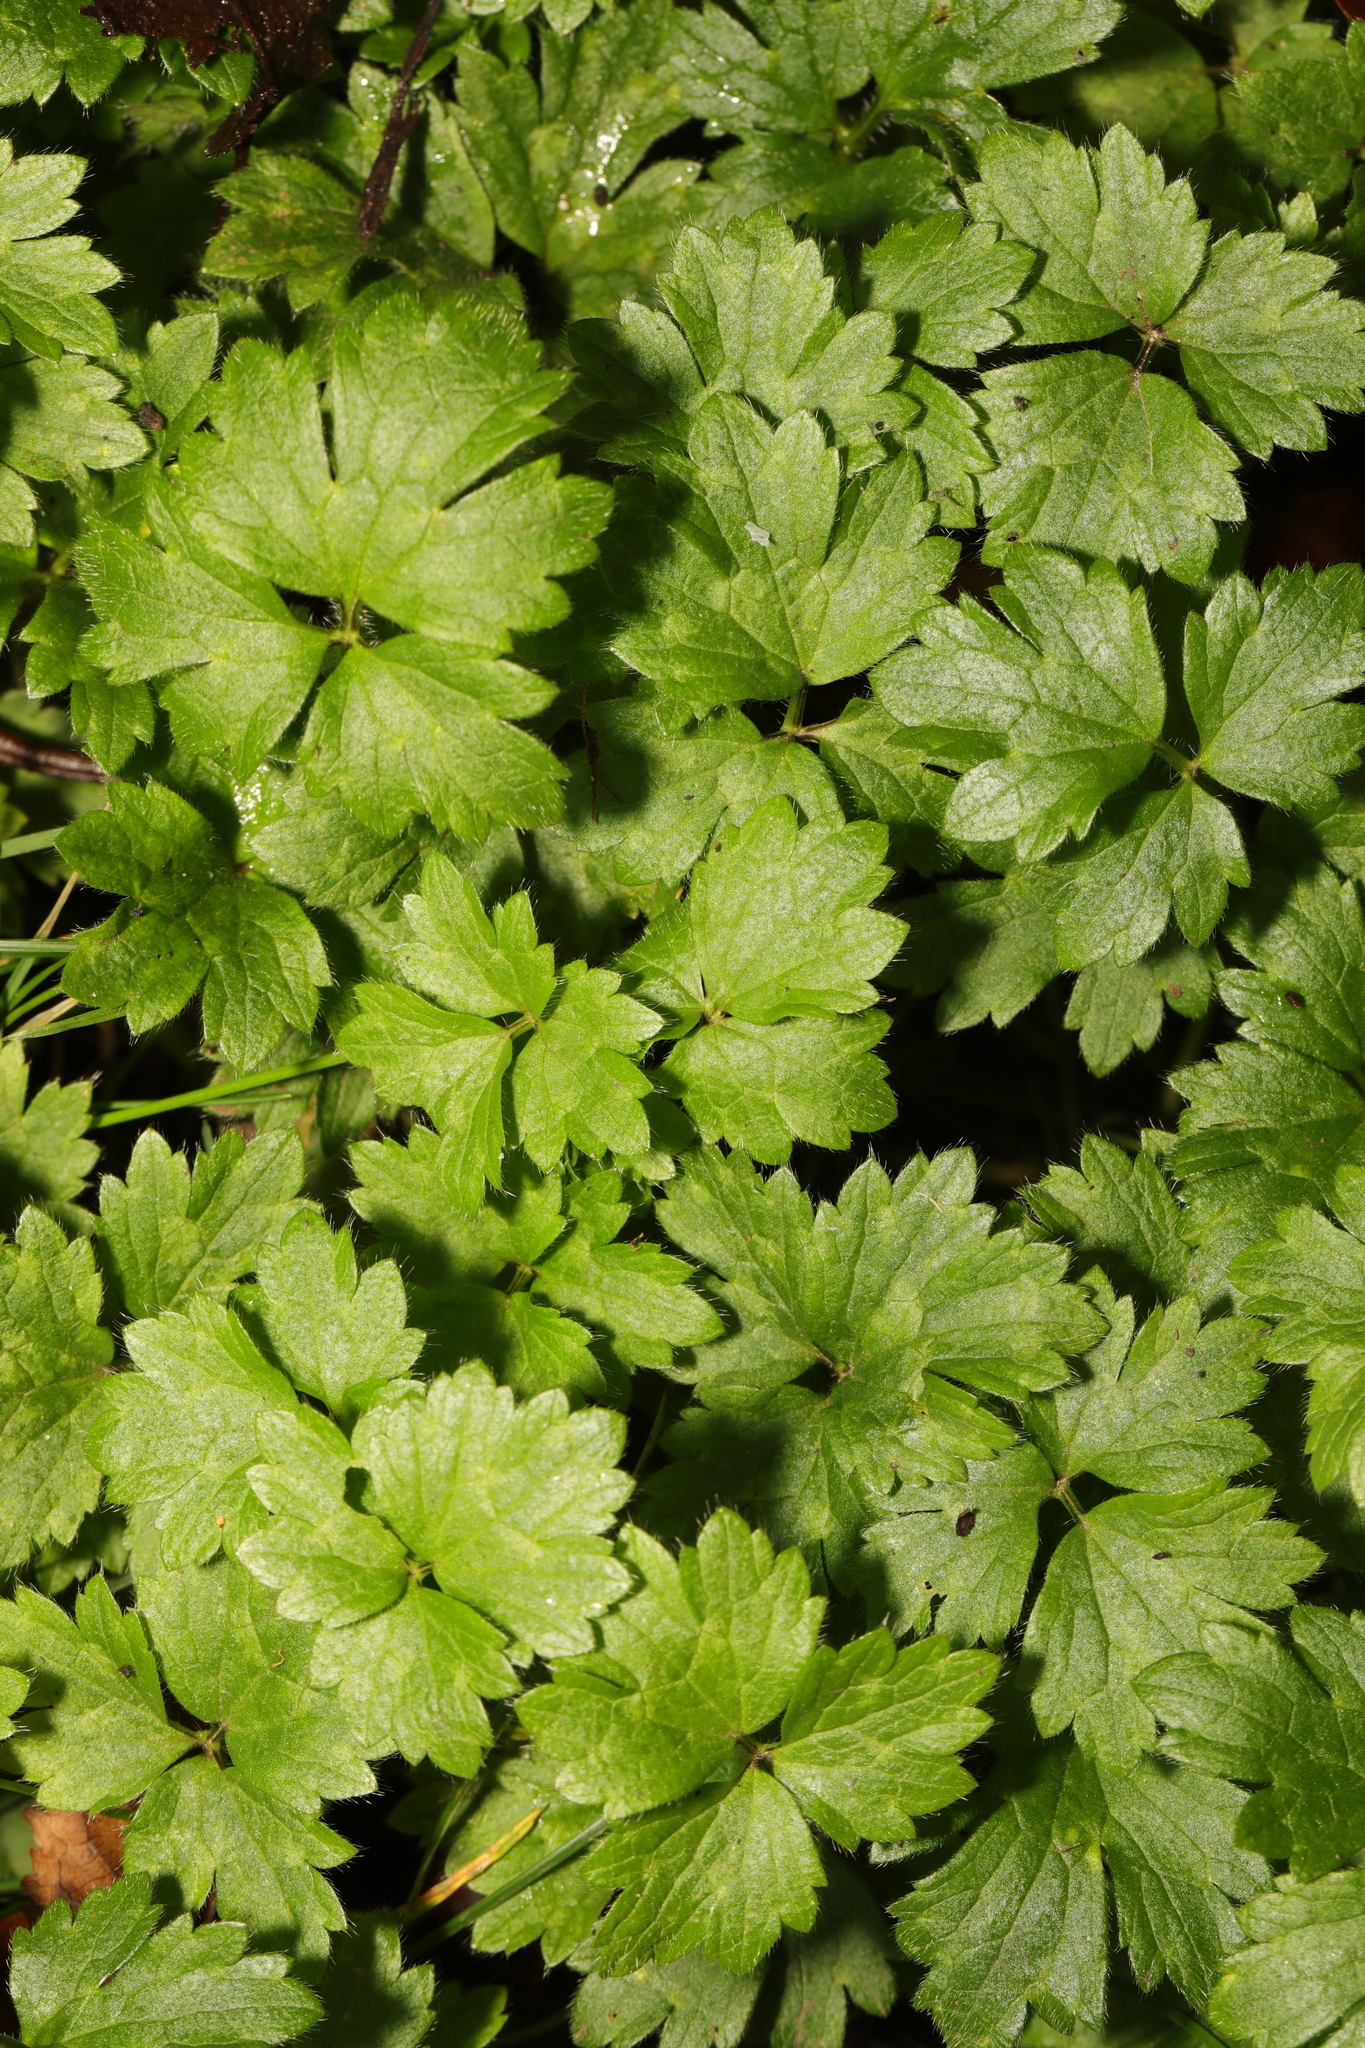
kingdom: Plantae
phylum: Tracheophyta
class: Magnoliopsida
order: Ranunculales
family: Ranunculaceae
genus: Ranunculus
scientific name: Ranunculus repens
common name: Creeping buttercup
